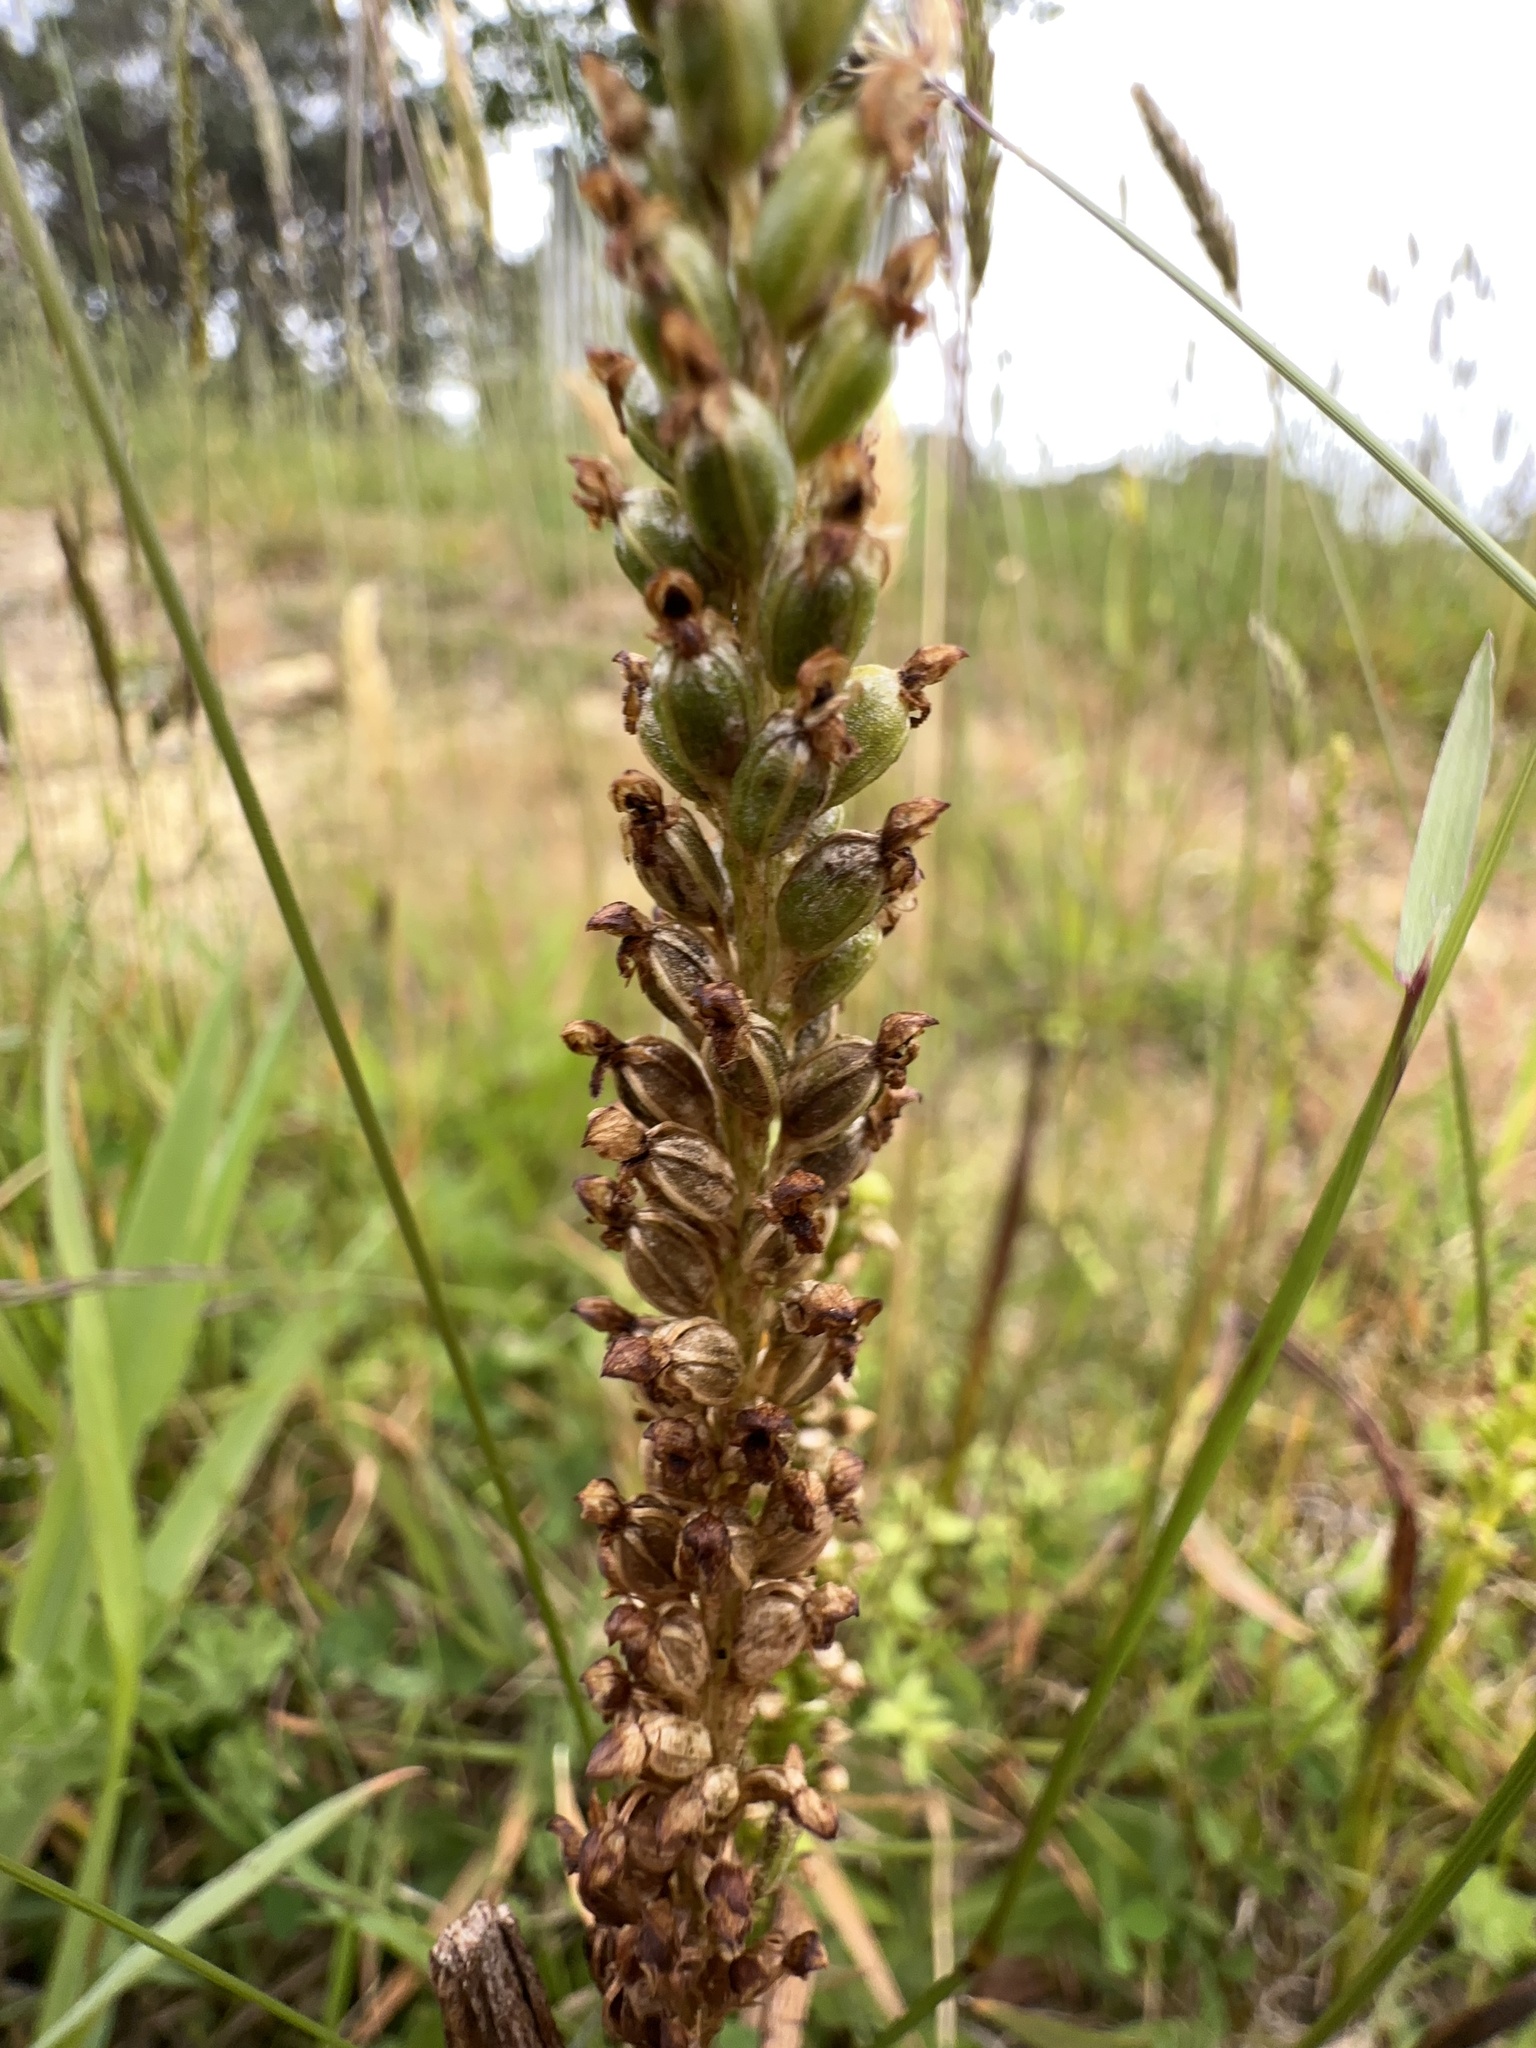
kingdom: Plantae
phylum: Tracheophyta
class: Liliopsida
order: Asparagales
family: Orchidaceae
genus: Microtis
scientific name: Microtis unifolia
